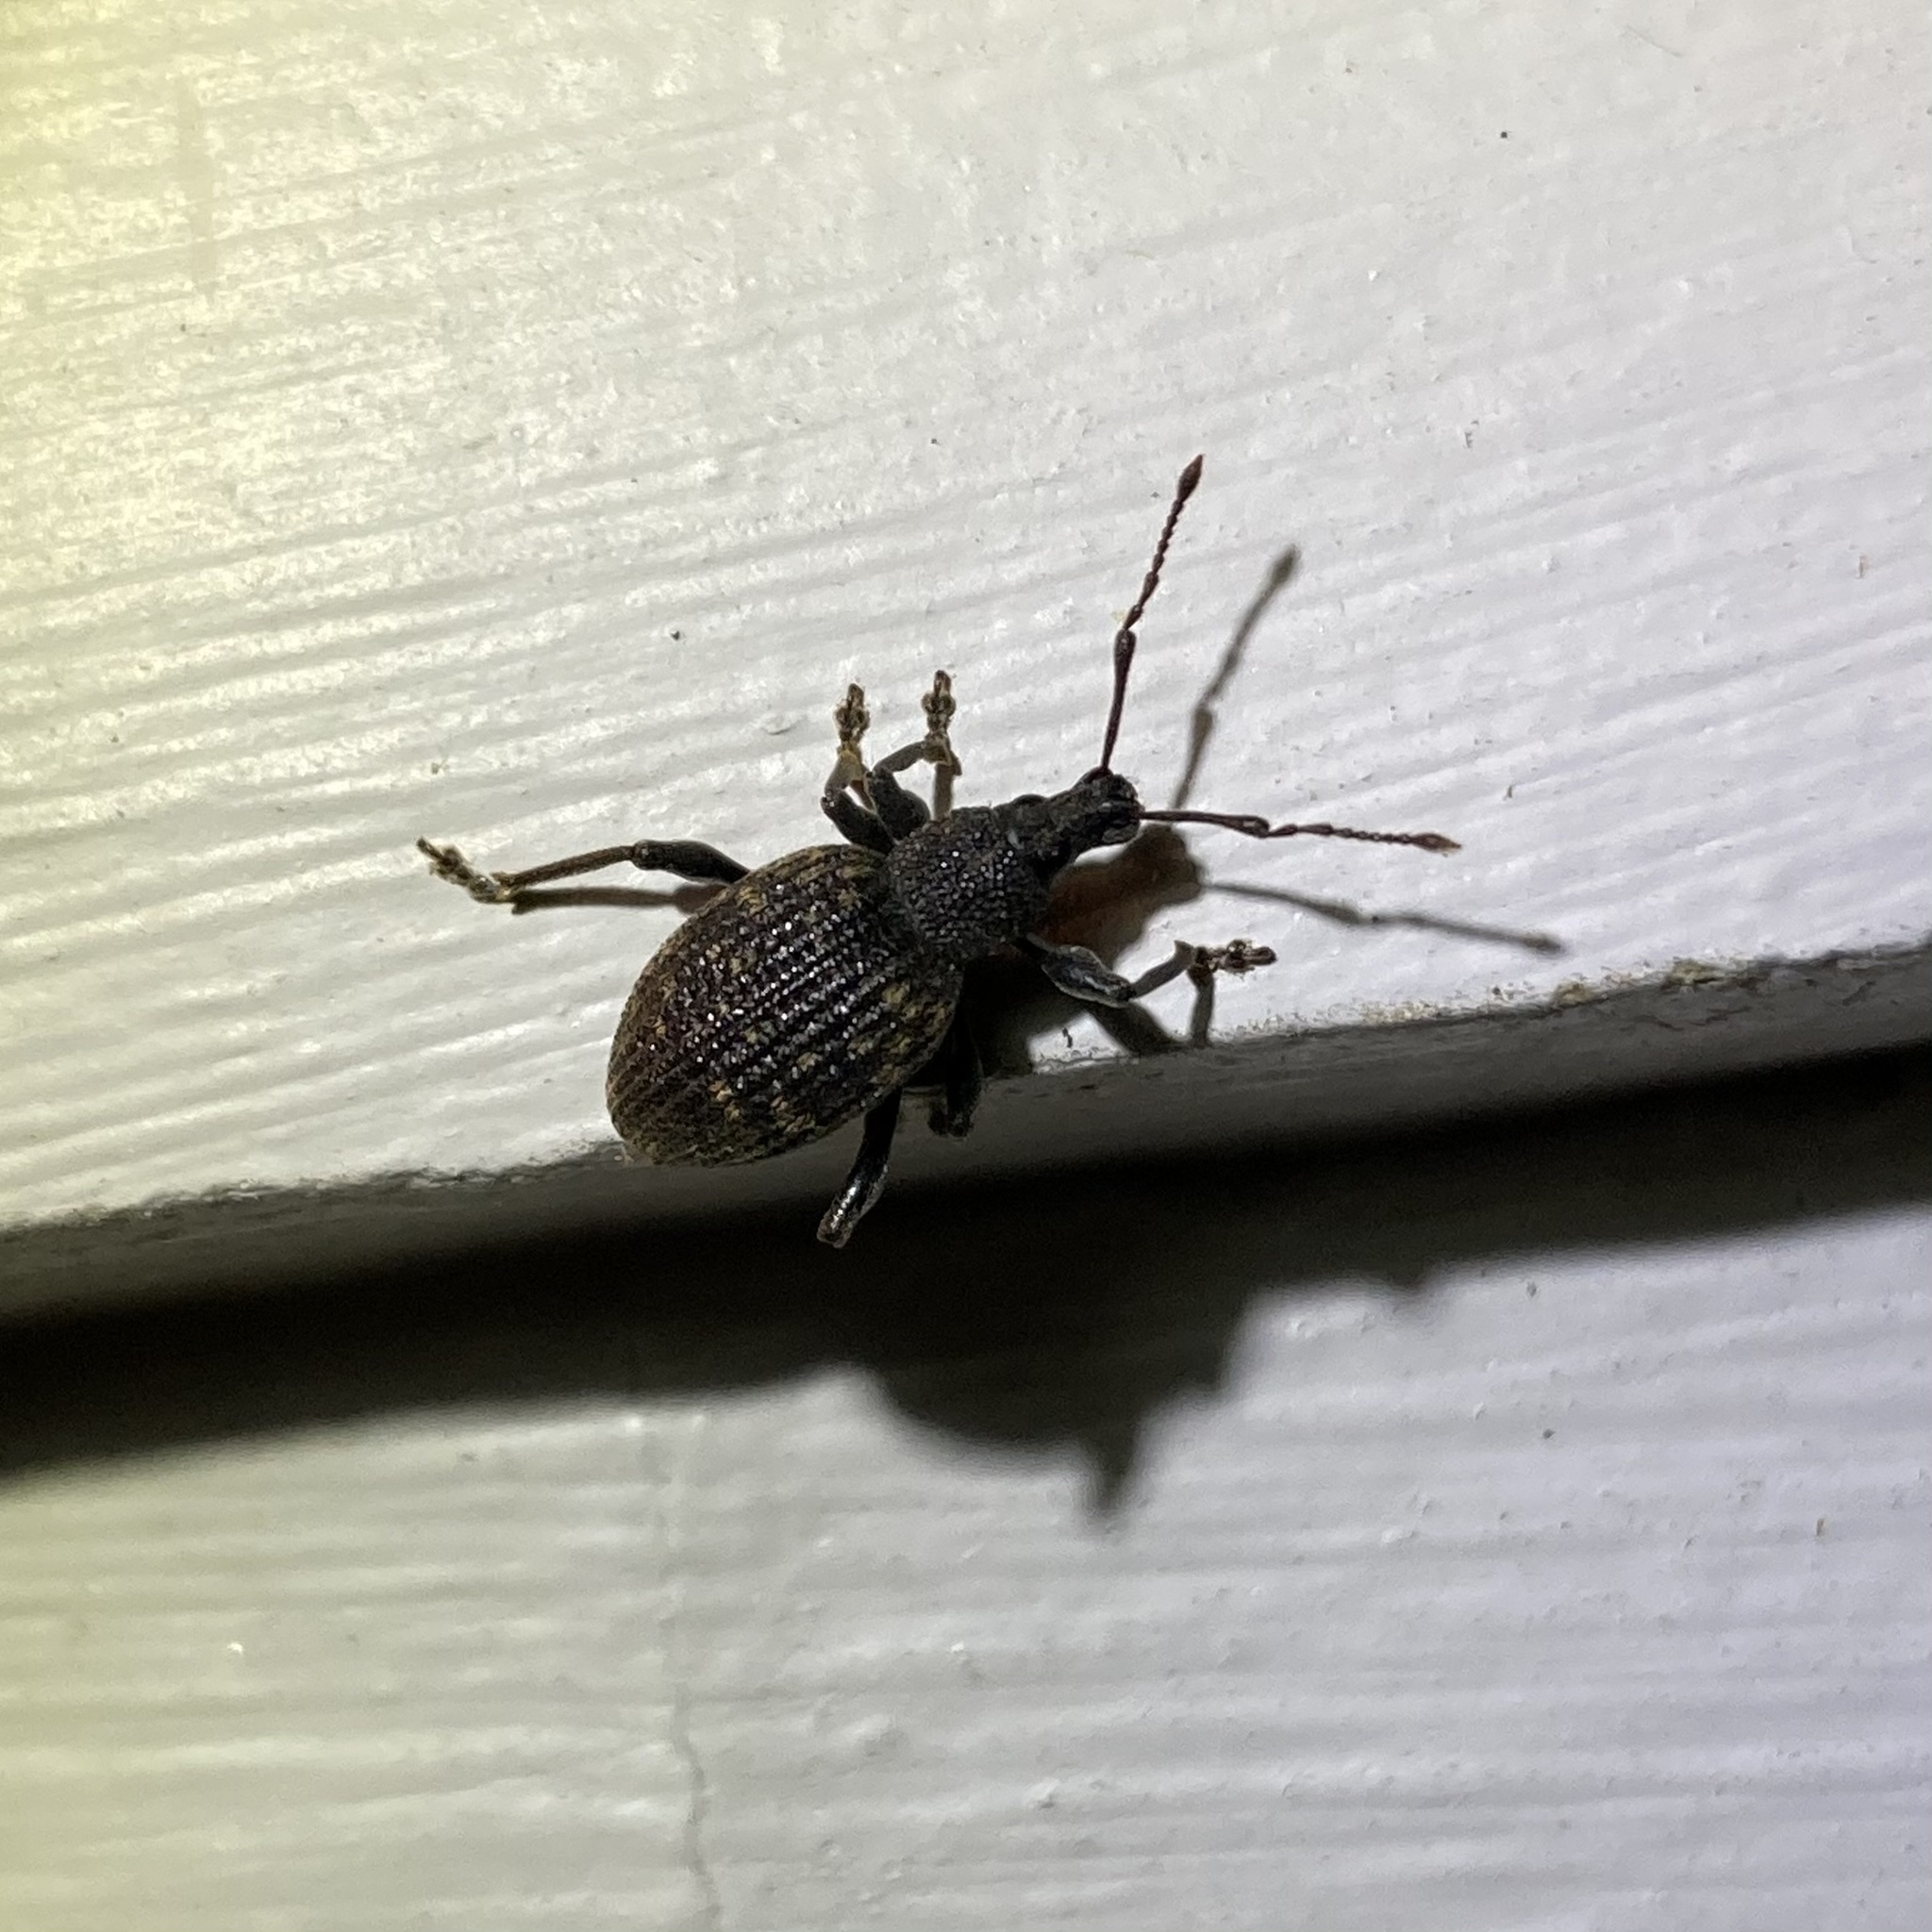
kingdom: Animalia
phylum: Arthropoda
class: Insecta
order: Coleoptera
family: Curculionidae
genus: Otiorhynchus
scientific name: Otiorhynchus sulcatus
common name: Black vine weevil
